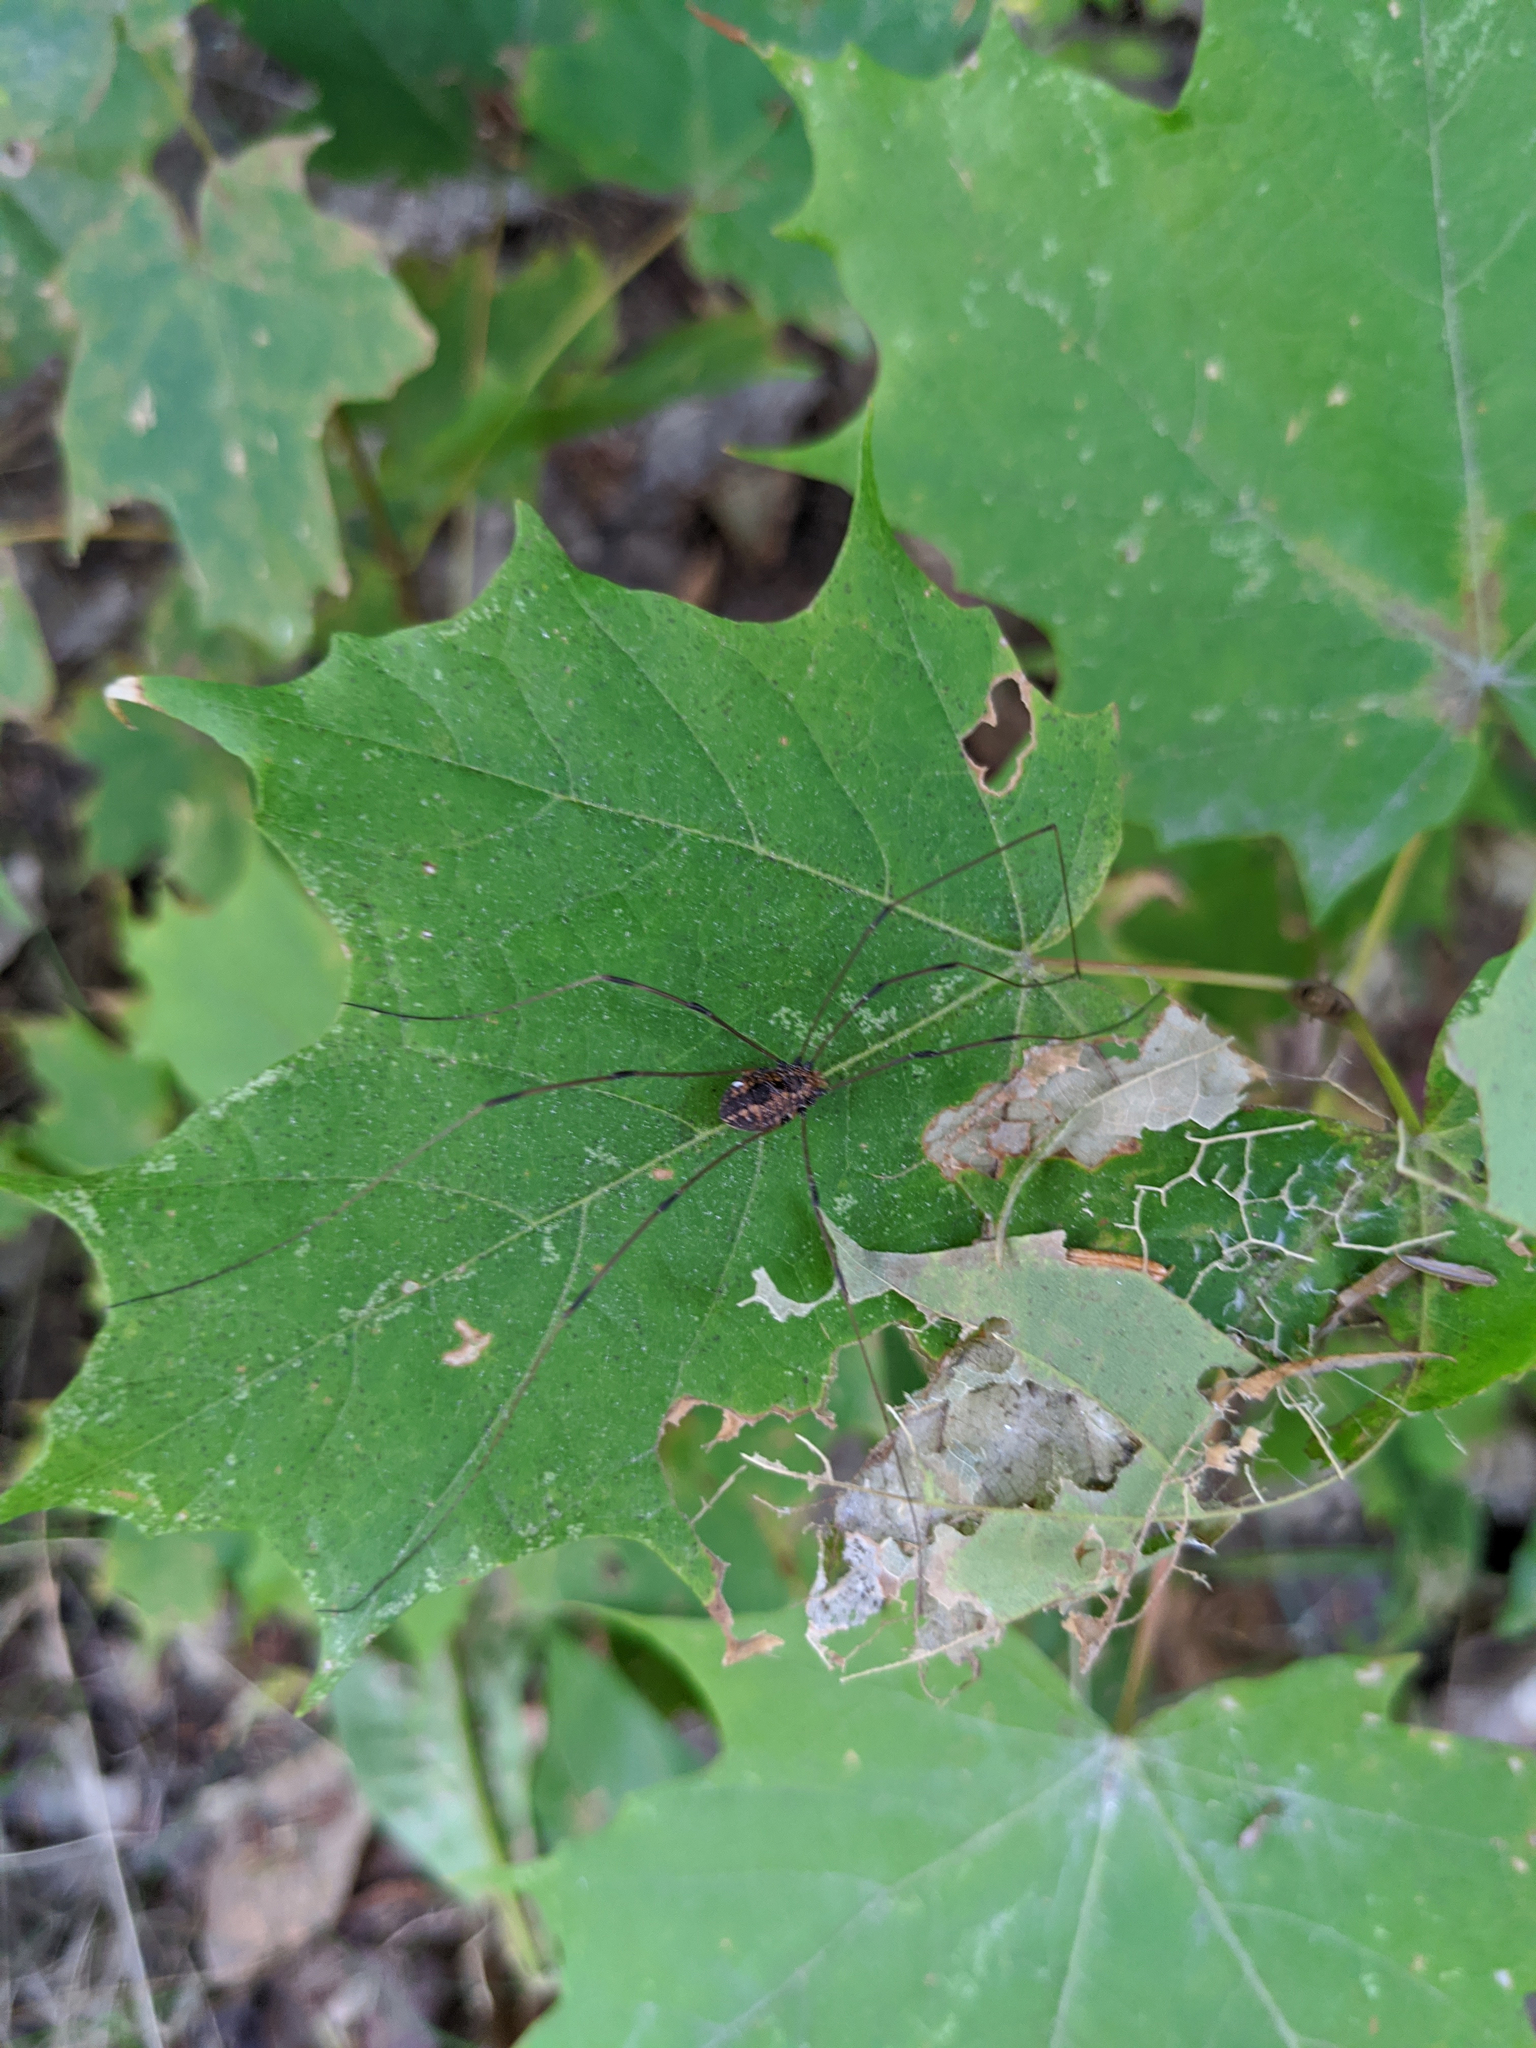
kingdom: Animalia
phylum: Arthropoda
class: Arachnida
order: Opiliones
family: Sclerosomatidae
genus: Leiobunum
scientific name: Leiobunum vittatum
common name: Eastern harvestman
